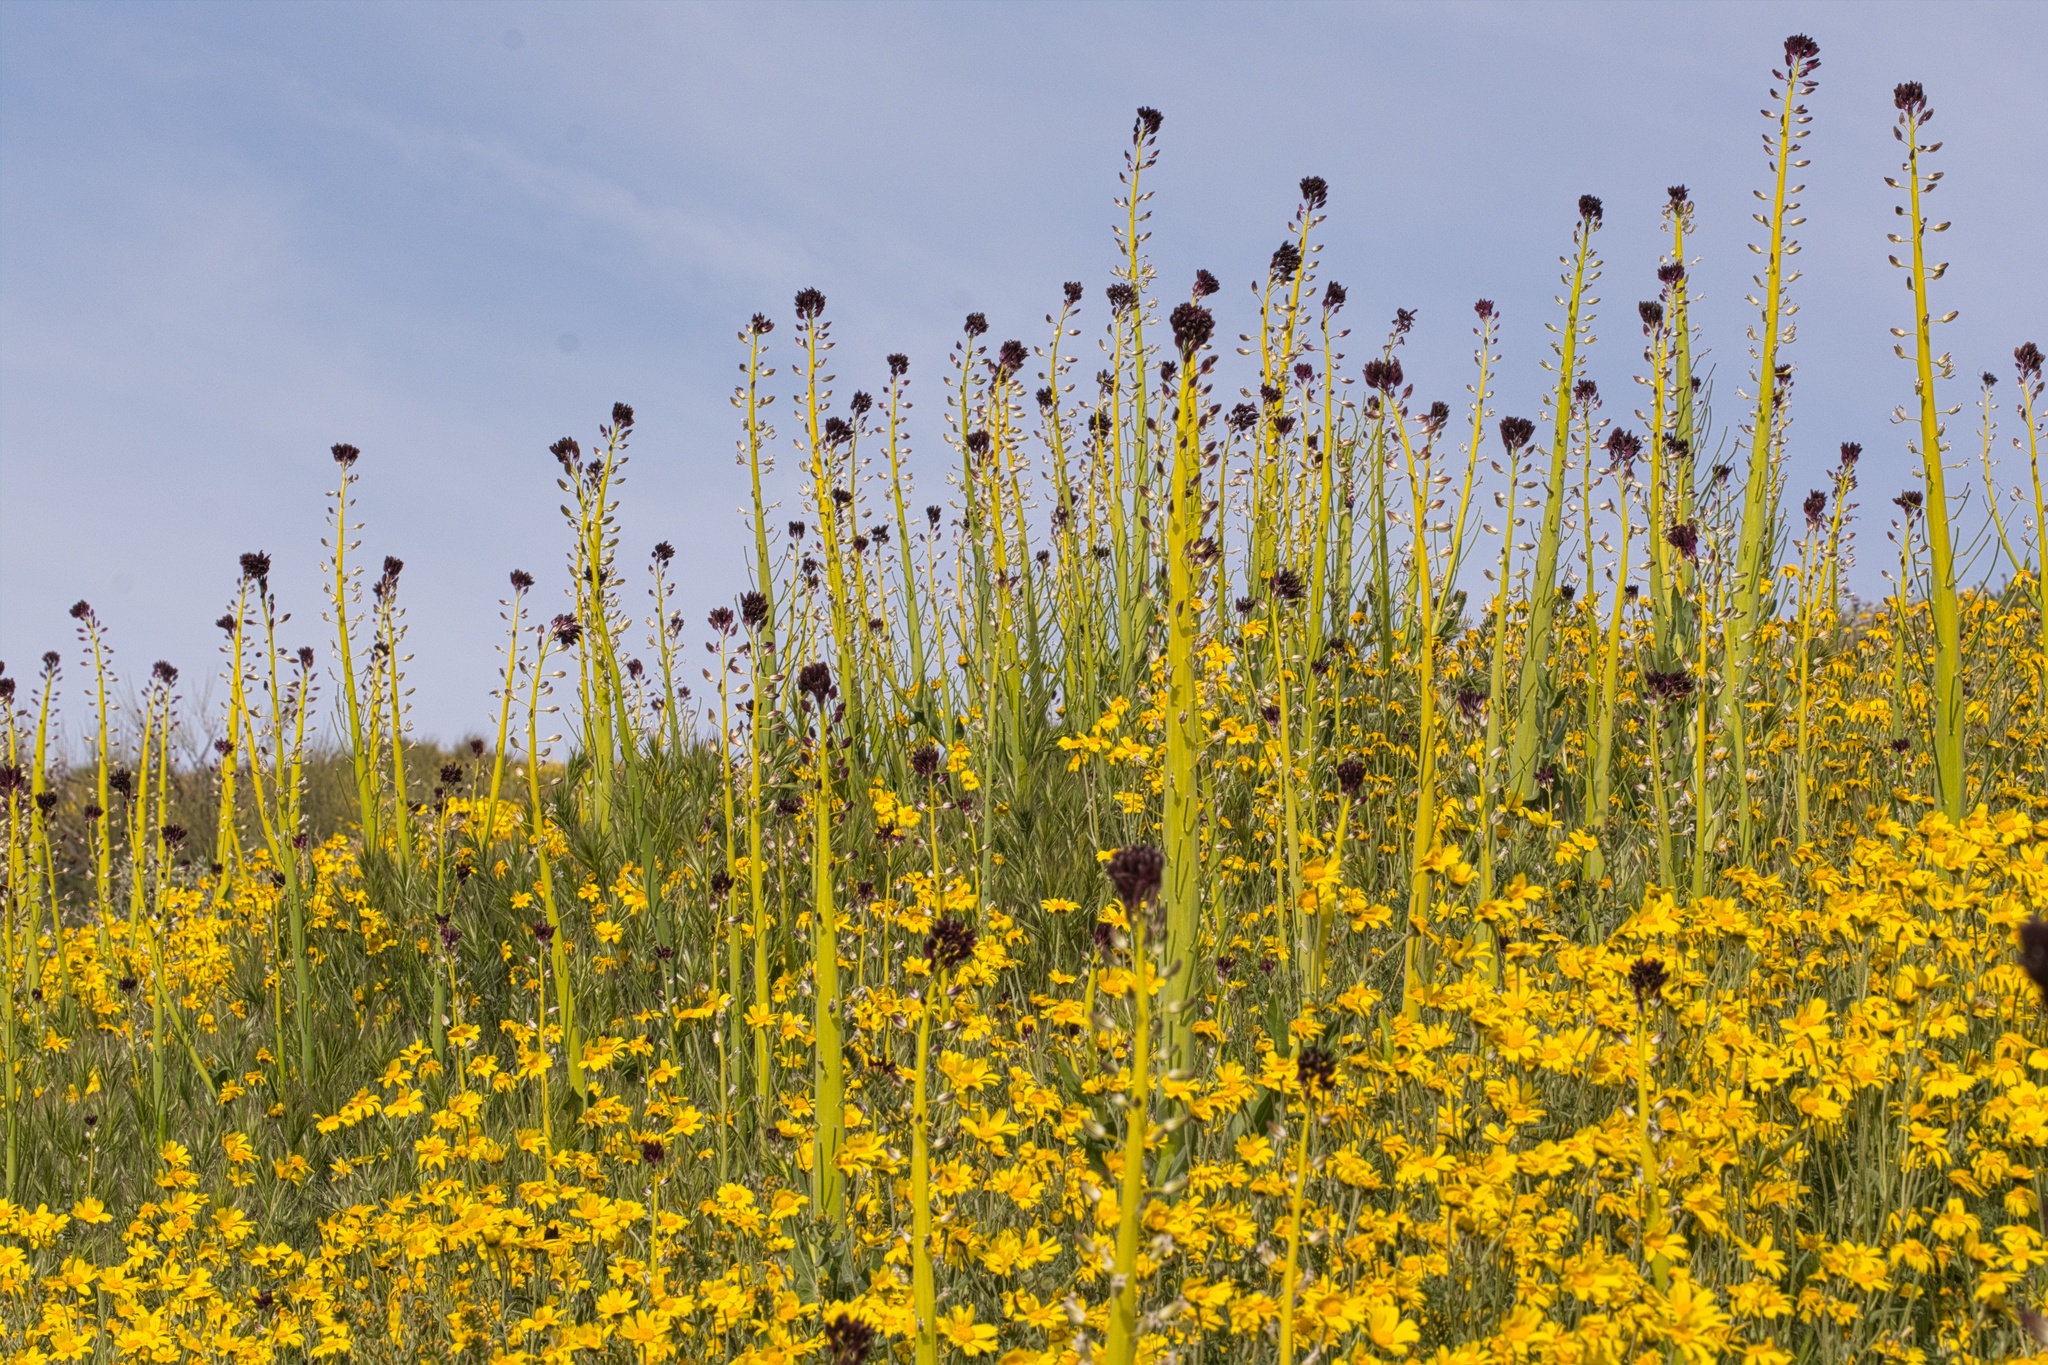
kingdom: Plantae
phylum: Tracheophyta
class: Magnoliopsida
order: Brassicales
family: Brassicaceae
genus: Streptanthus
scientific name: Streptanthus inflatus
